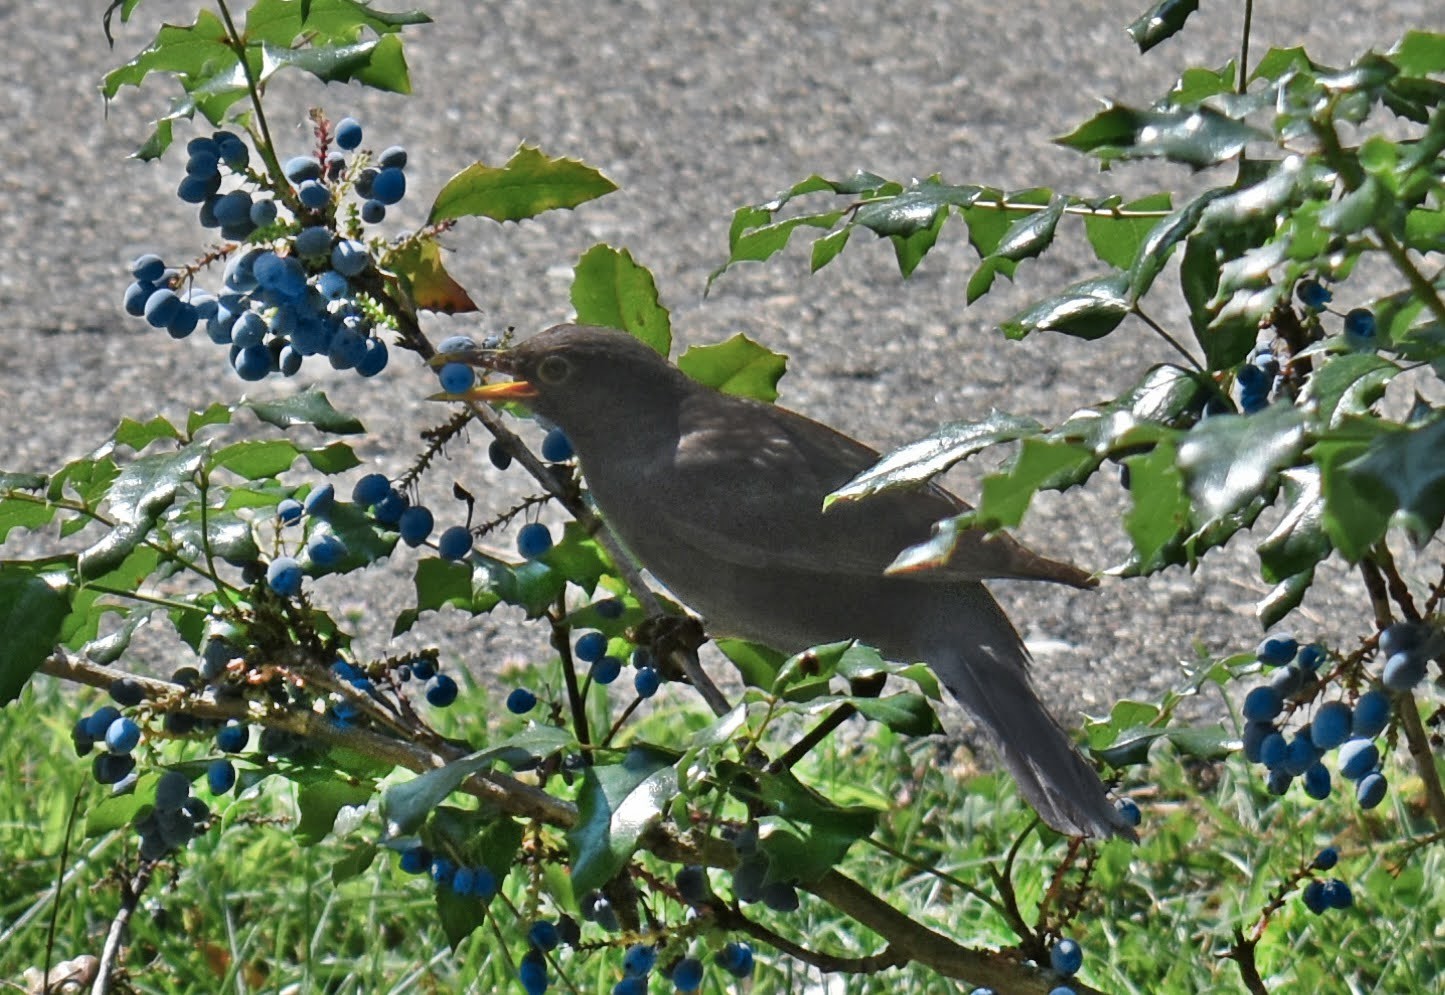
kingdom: Animalia
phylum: Chordata
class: Aves
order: Passeriformes
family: Turdidae
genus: Turdus
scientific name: Turdus merula
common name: Common blackbird
